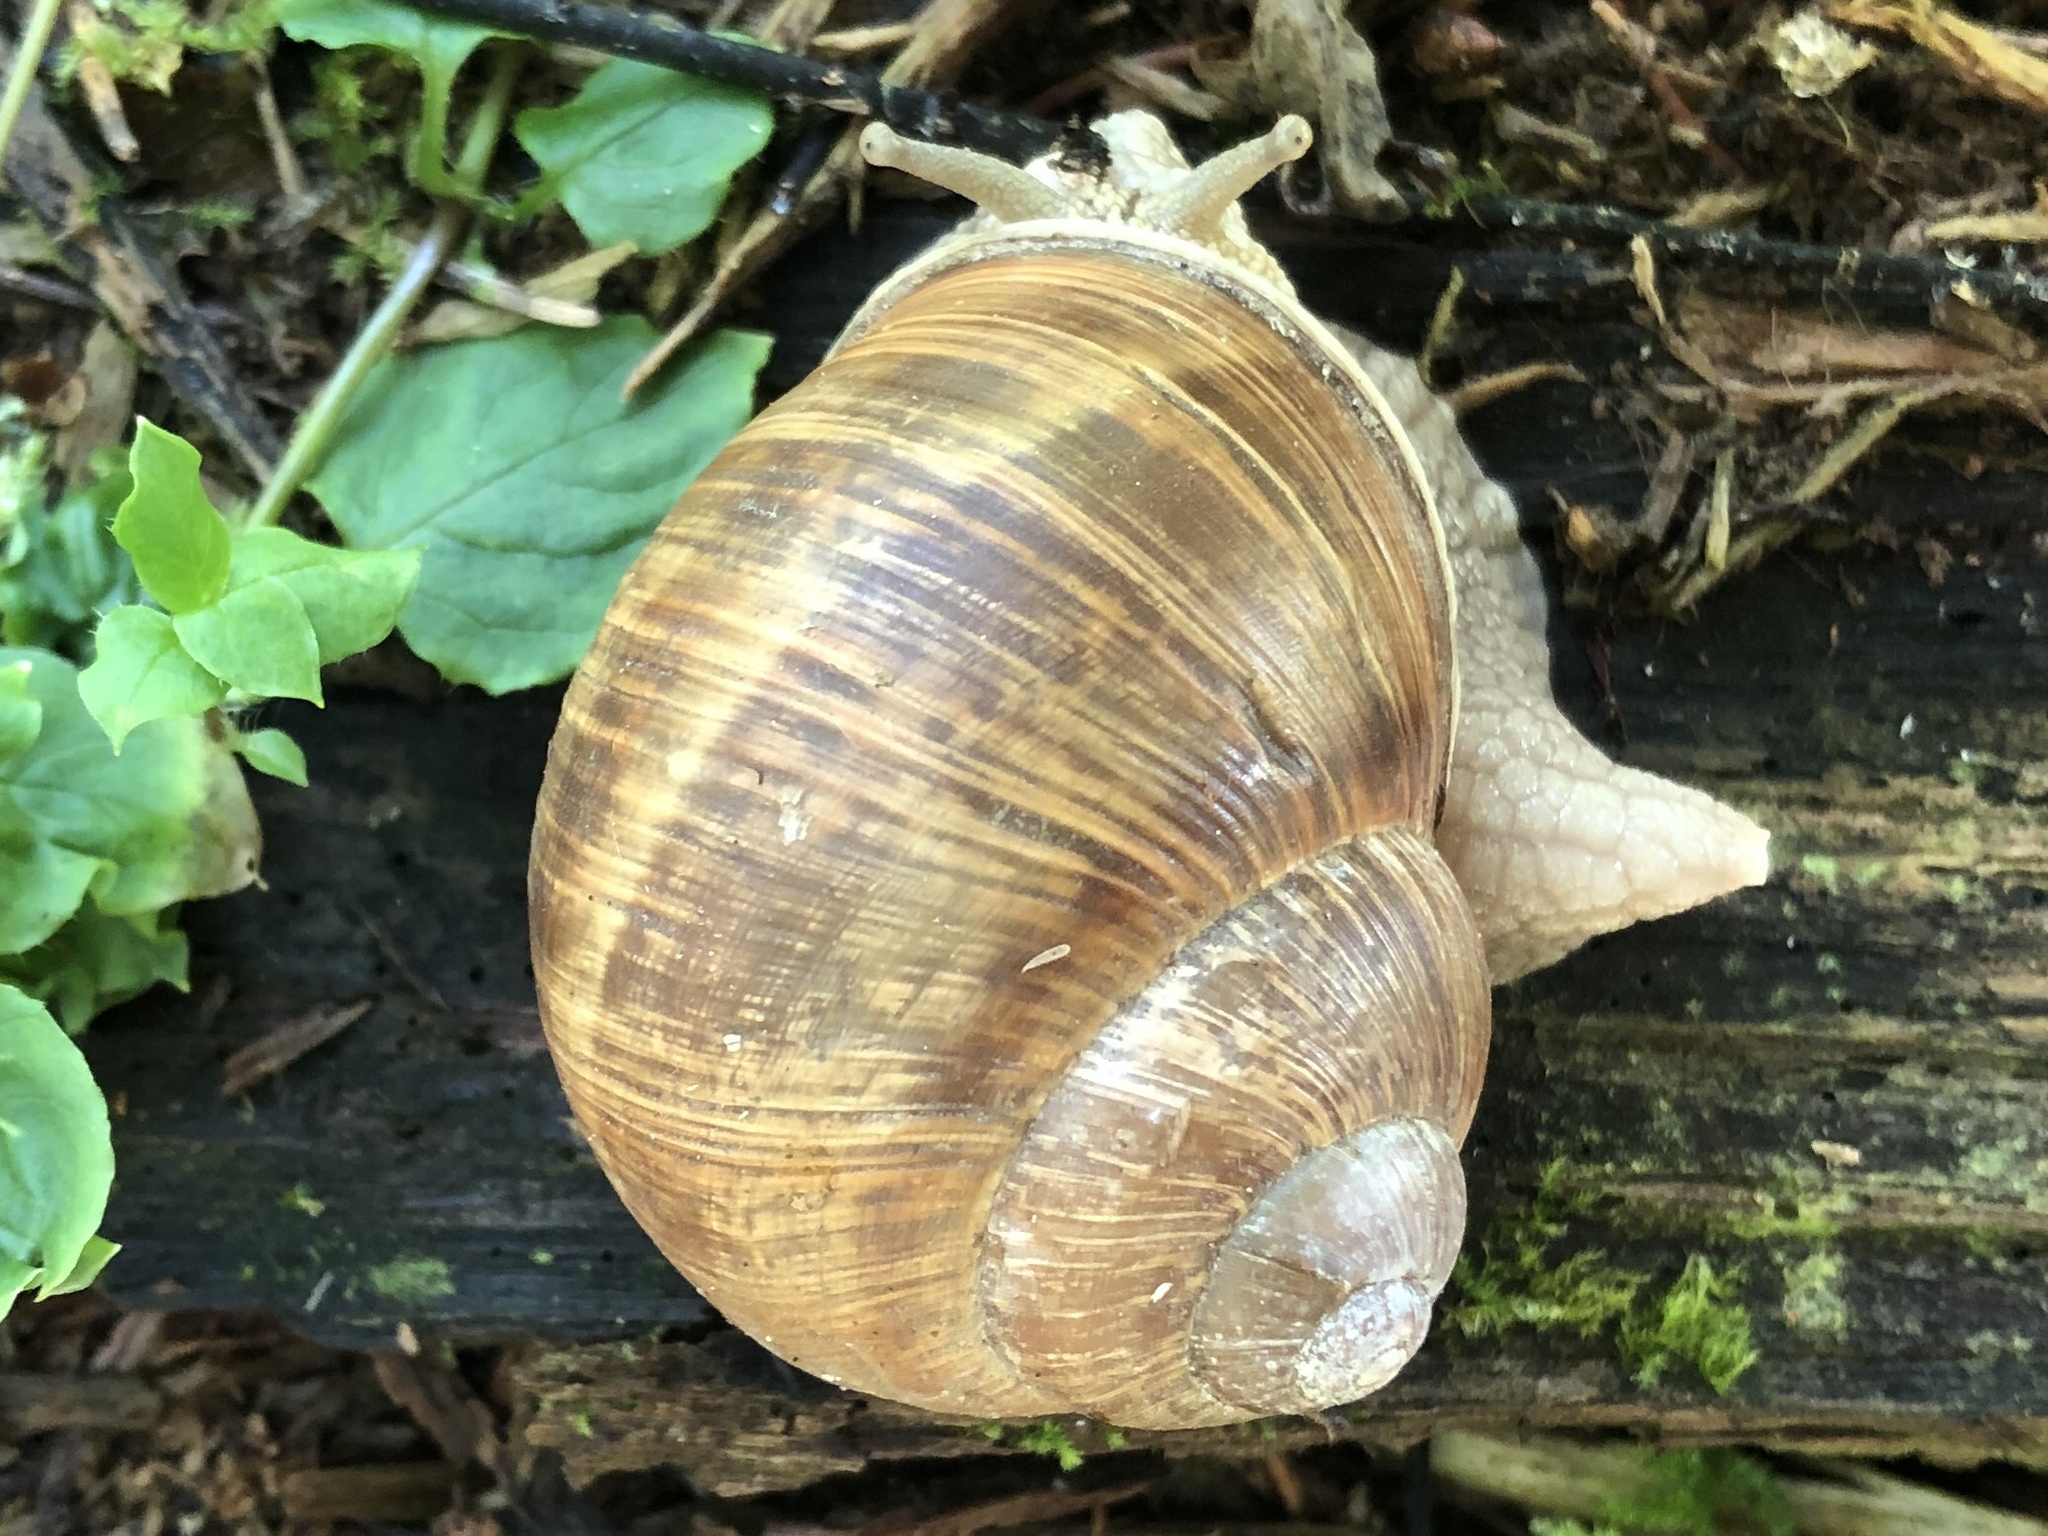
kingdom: Animalia
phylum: Mollusca
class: Gastropoda
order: Stylommatophora
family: Helicidae
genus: Helix
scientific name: Helix pomatia
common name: Roman snail
